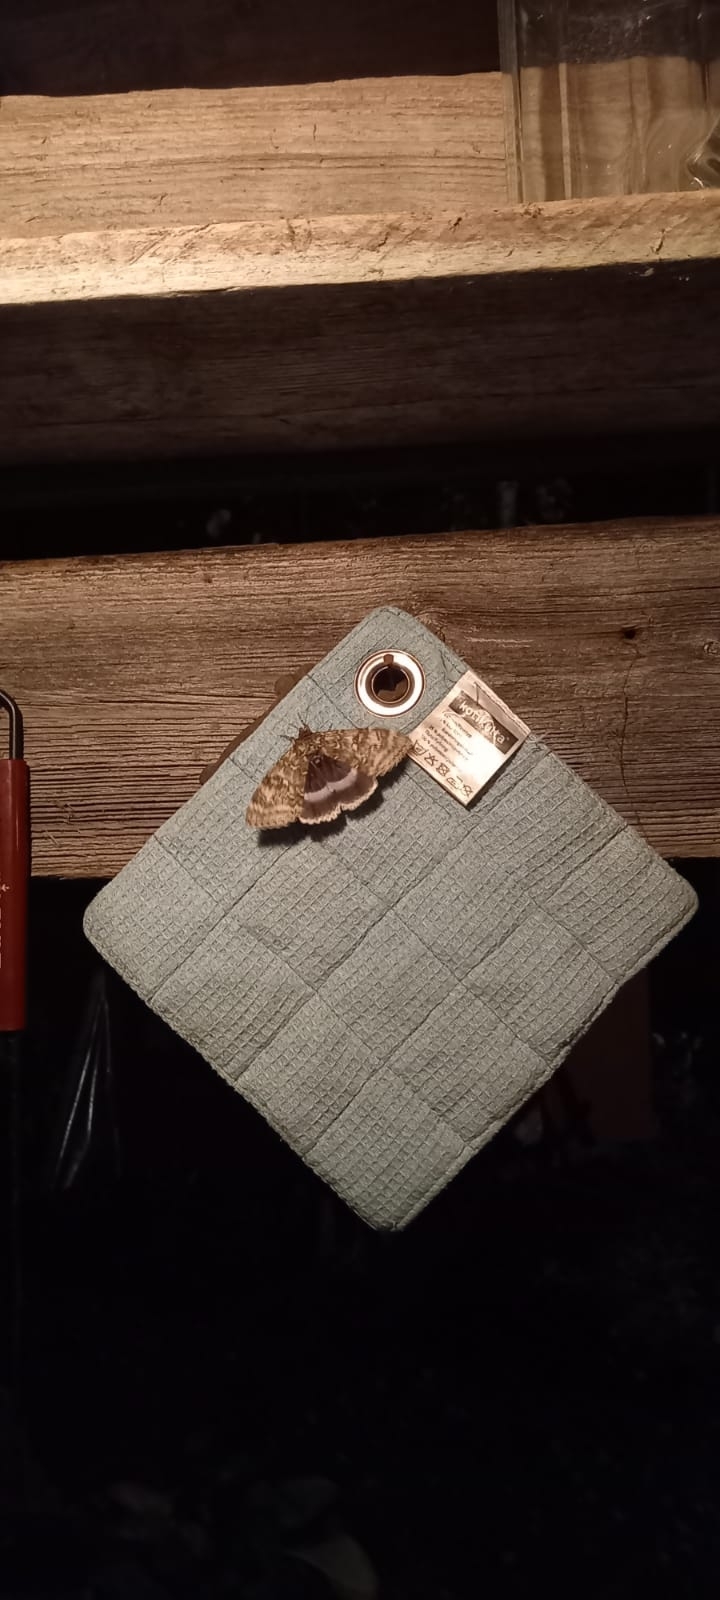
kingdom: Animalia
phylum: Arthropoda
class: Insecta
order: Lepidoptera
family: Erebidae
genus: Catocala
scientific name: Catocala fraxini
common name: Clifden nonpareil
